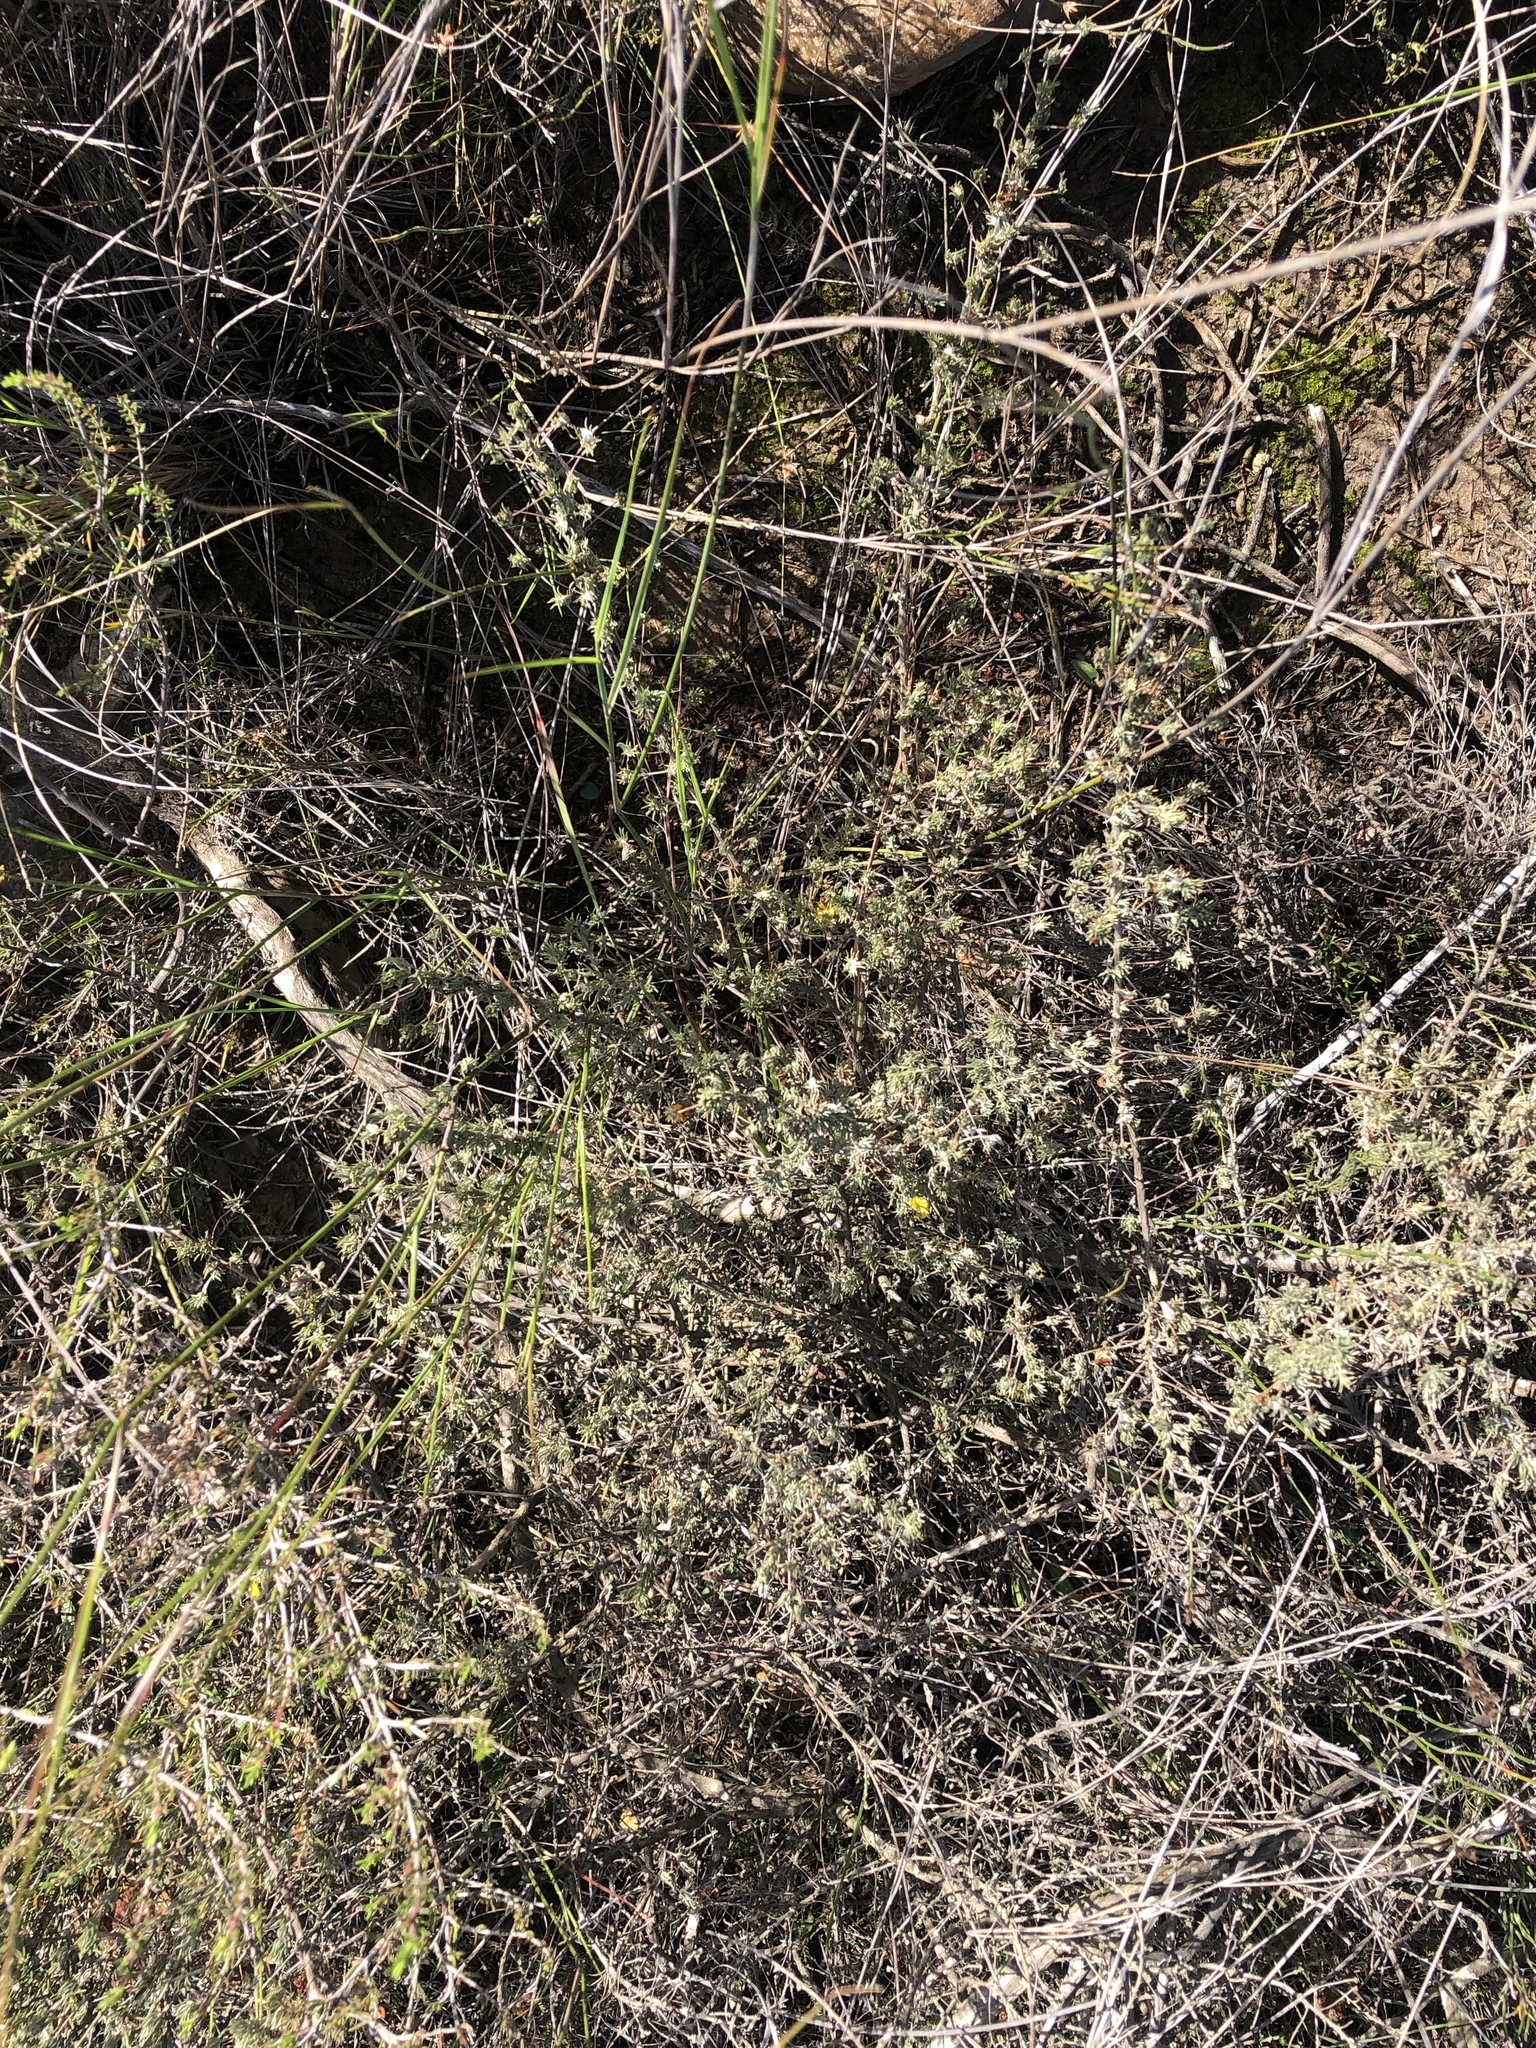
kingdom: Plantae
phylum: Tracheophyta
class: Magnoliopsida
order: Fabales
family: Fabaceae
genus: Aspalathus
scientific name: Aspalathus longipes
